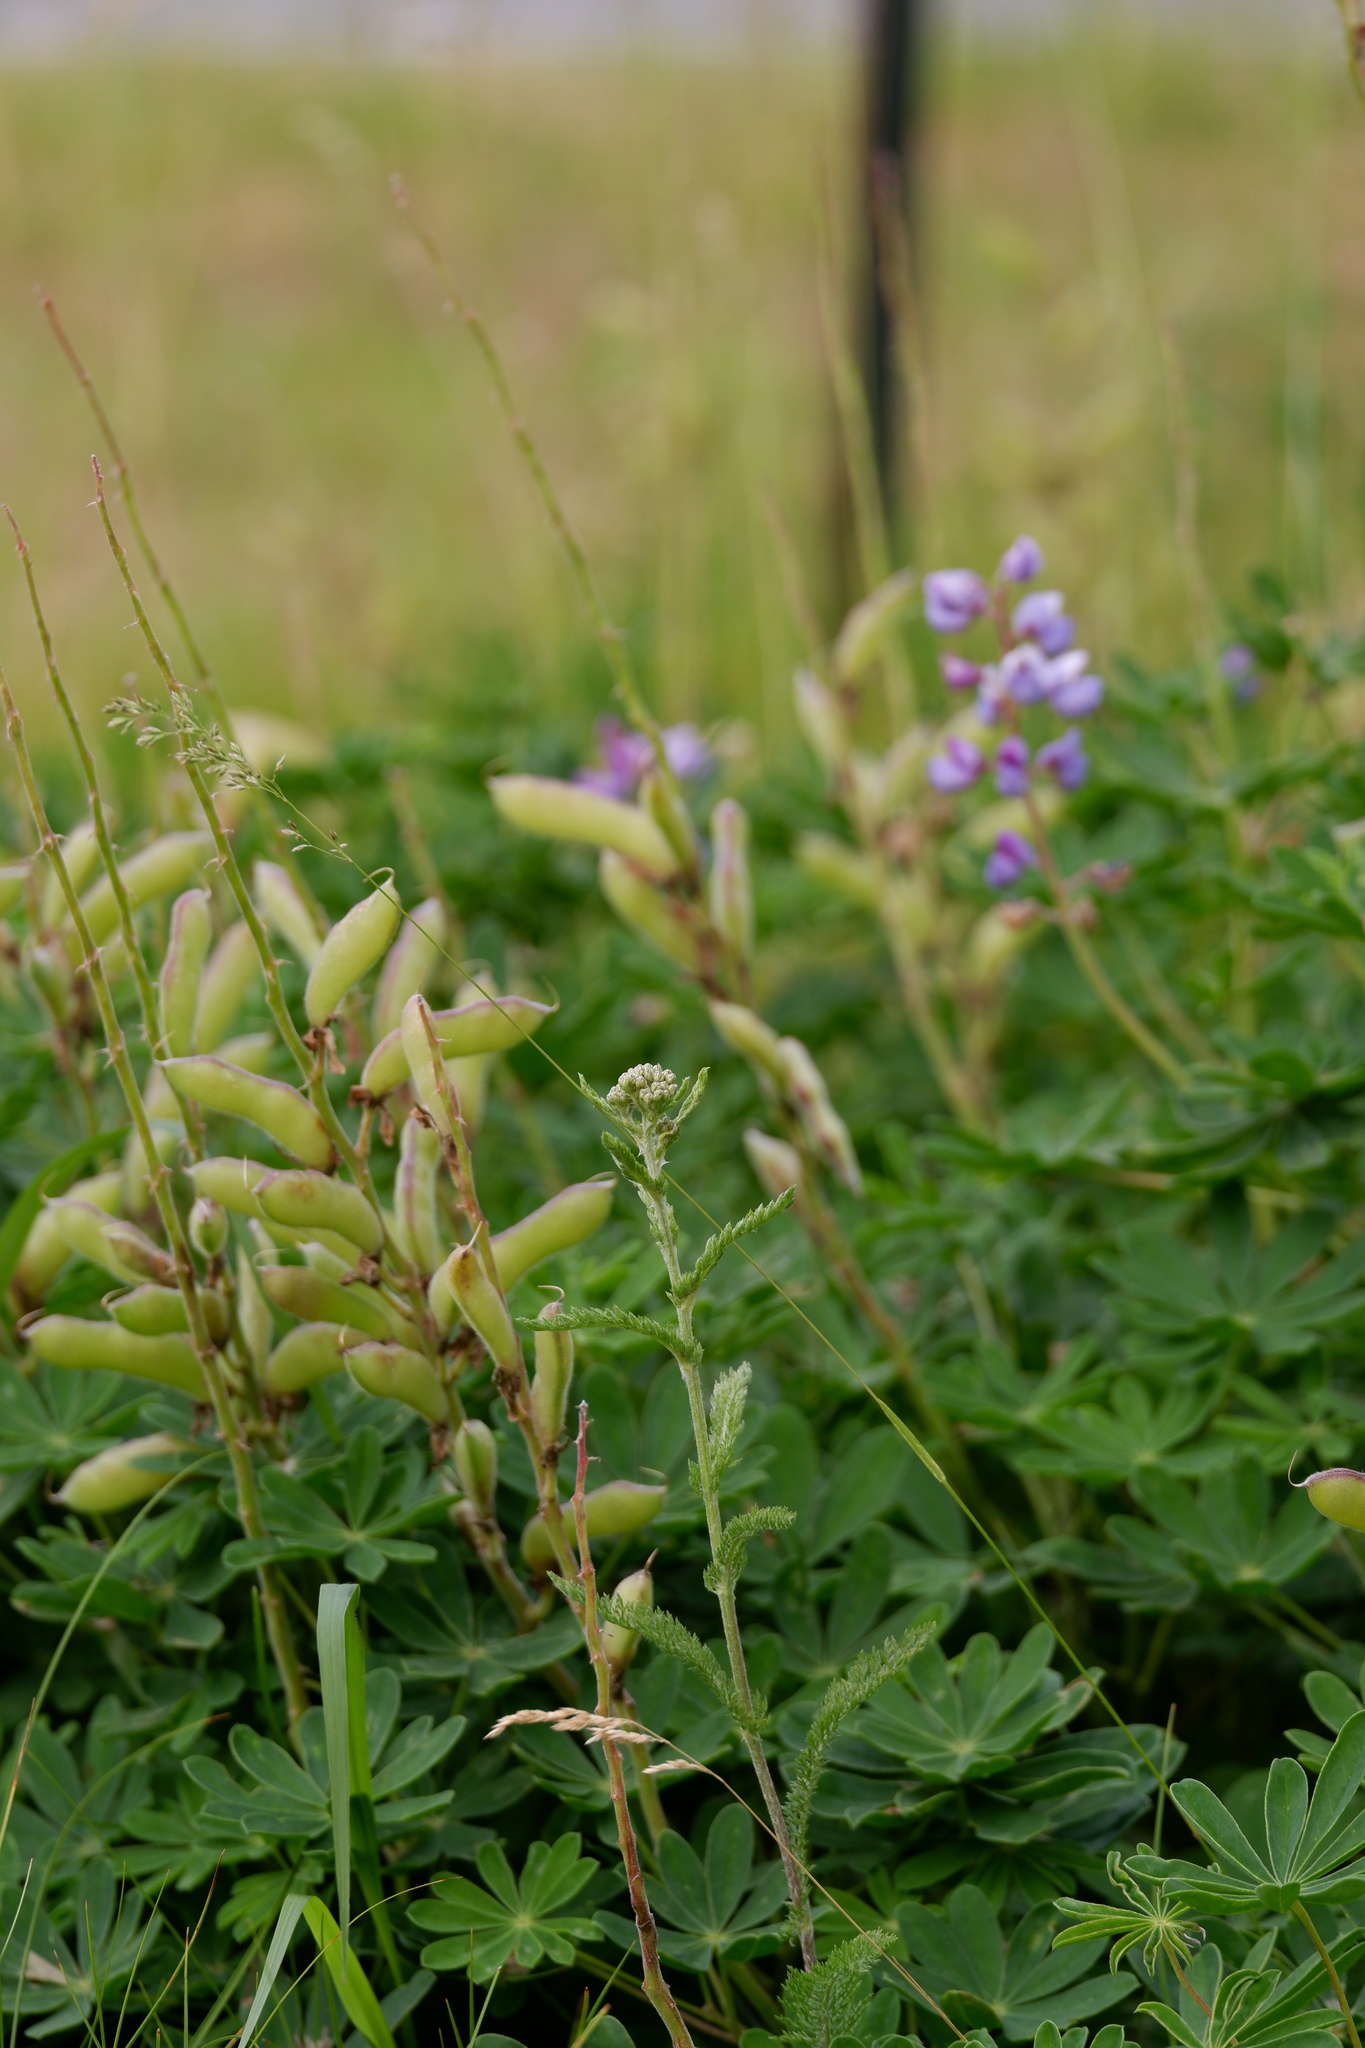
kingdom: Plantae
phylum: Tracheophyta
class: Magnoliopsida
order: Fabales
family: Fabaceae
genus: Lupinus
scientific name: Lupinus perennis
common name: Sundial lupine
